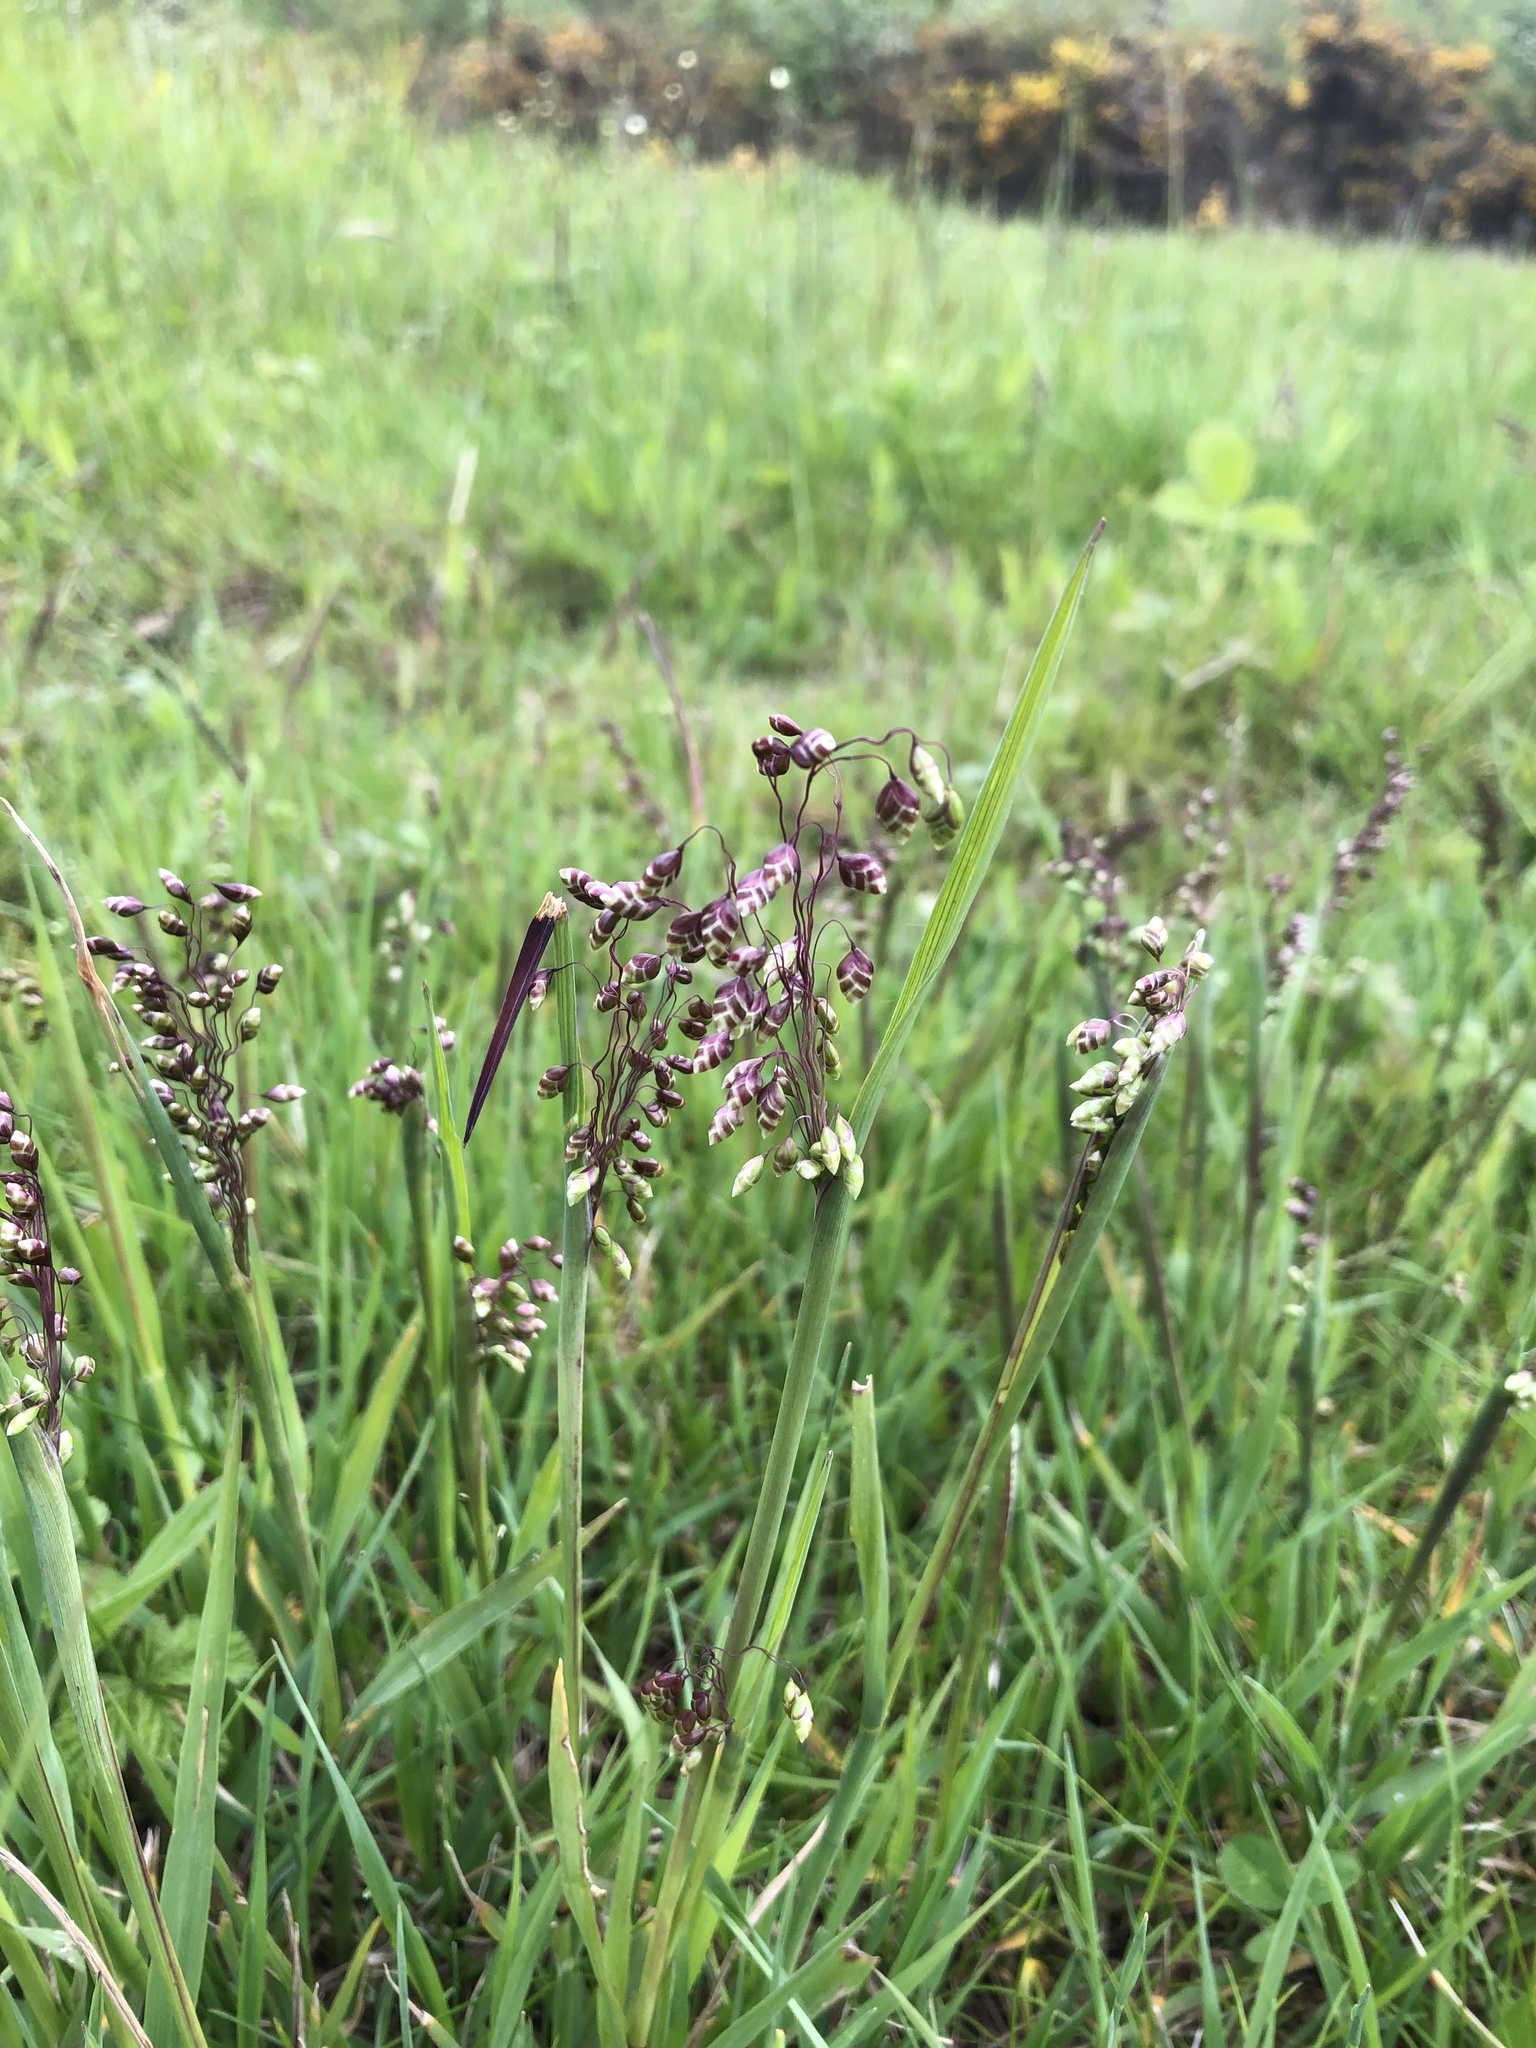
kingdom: Plantae
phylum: Tracheophyta
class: Liliopsida
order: Poales
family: Poaceae
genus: Briza
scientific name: Briza media
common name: Quaking grass
